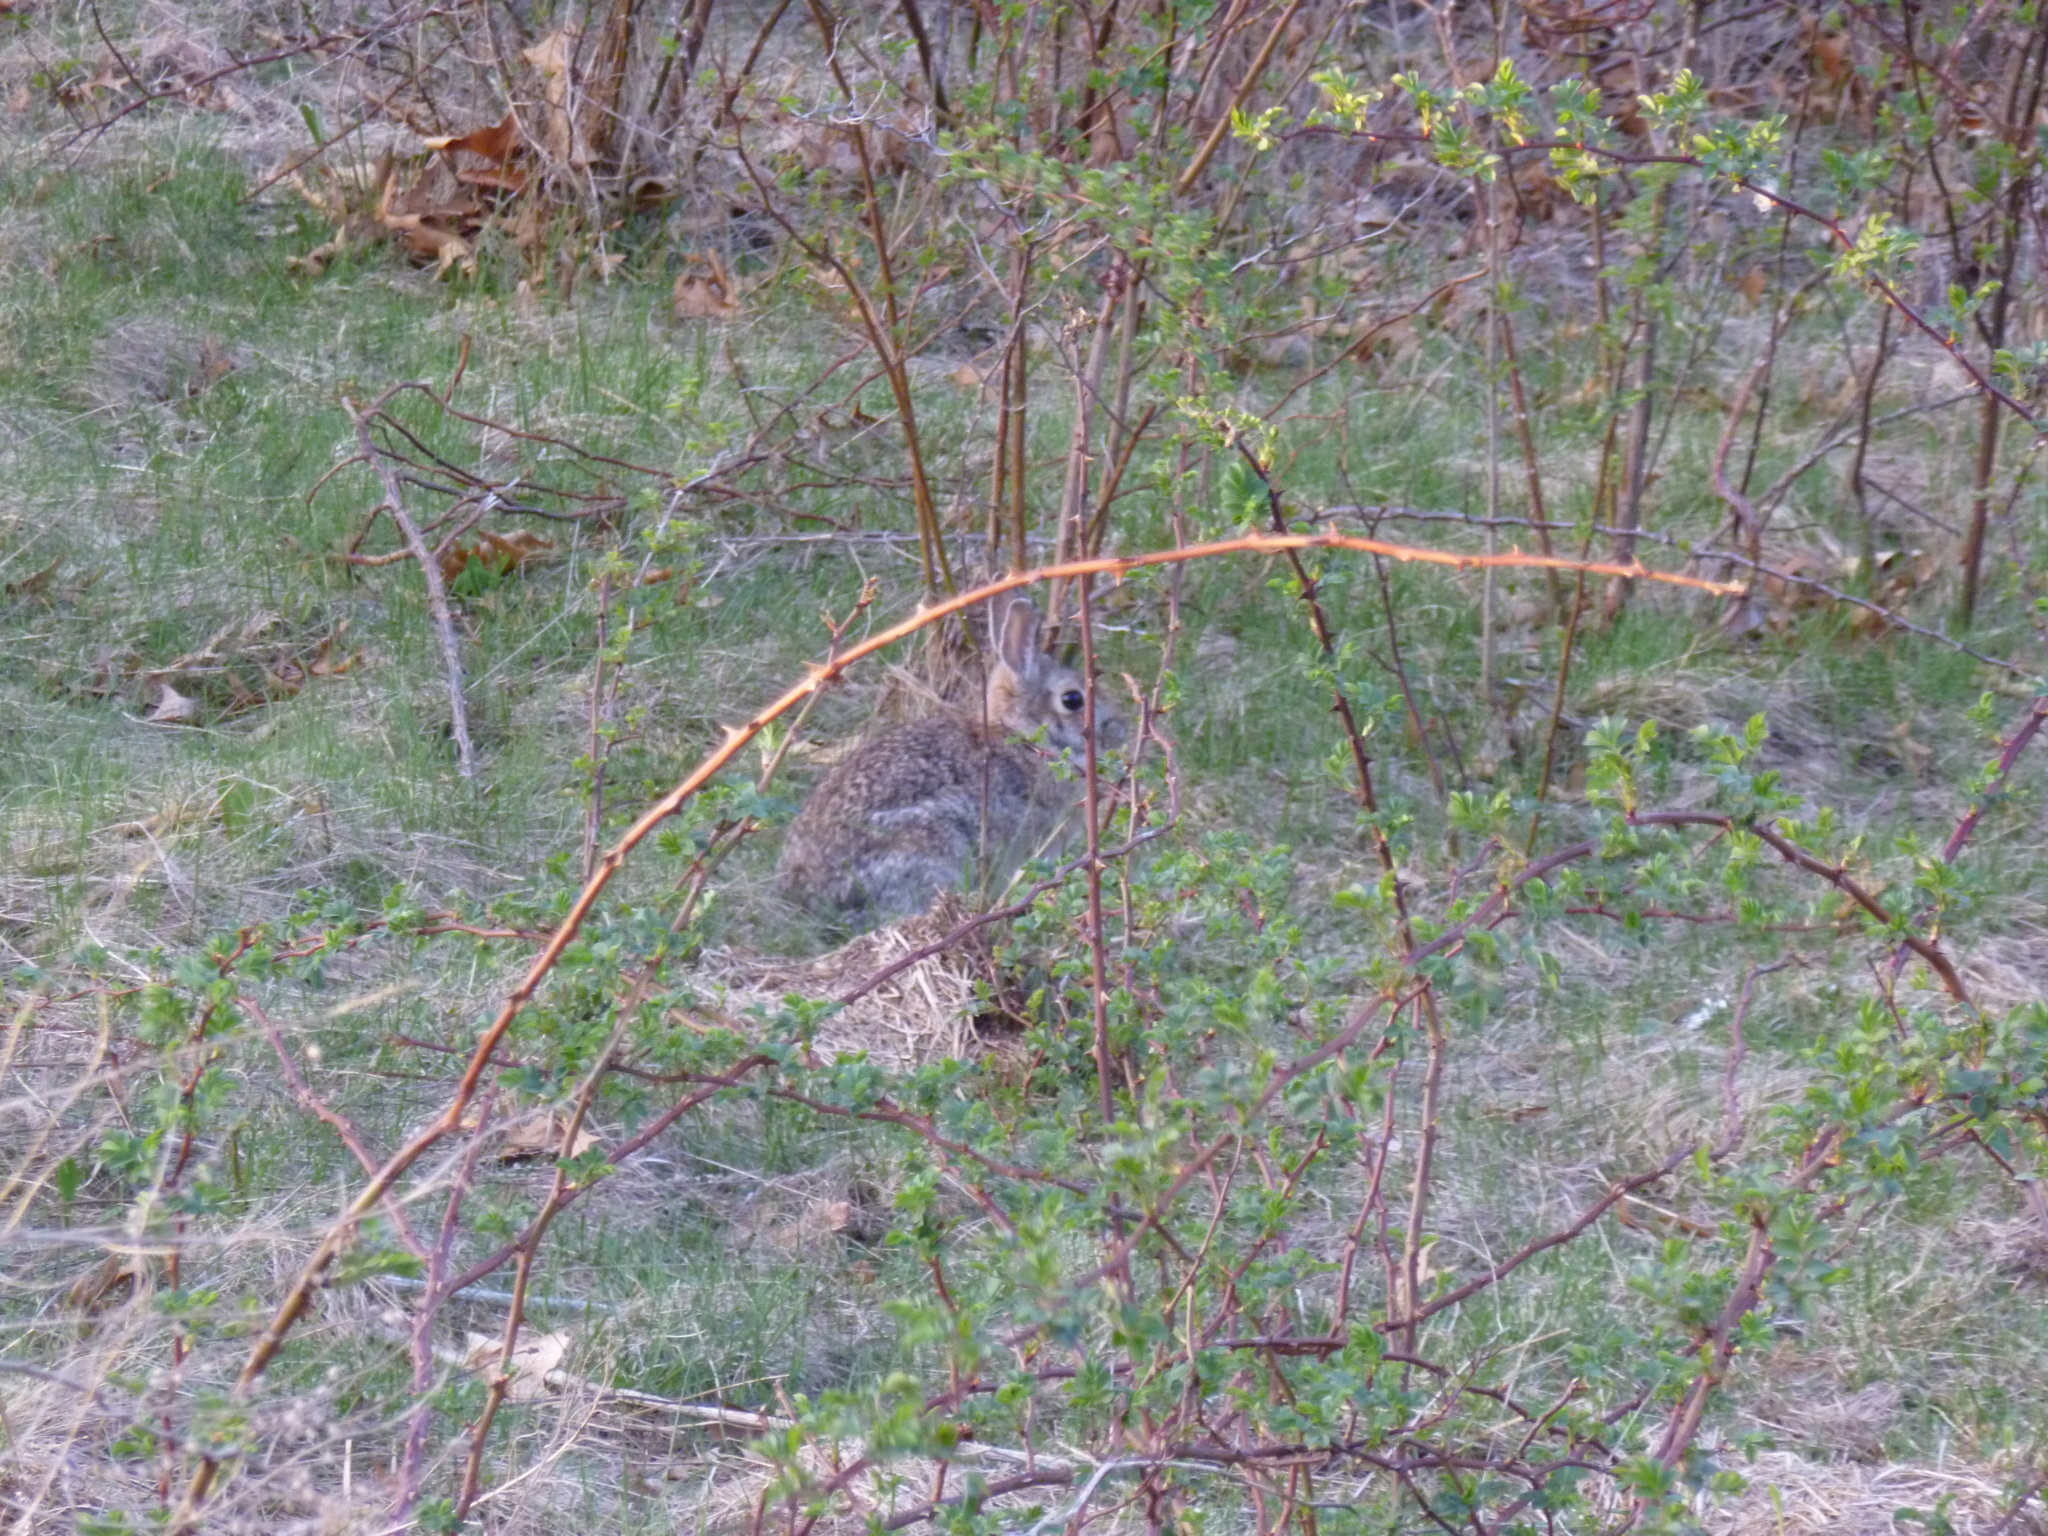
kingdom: Animalia
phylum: Chordata
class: Mammalia
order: Lagomorpha
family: Leporidae
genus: Sylvilagus
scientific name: Sylvilagus floridanus
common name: Eastern cottontail
